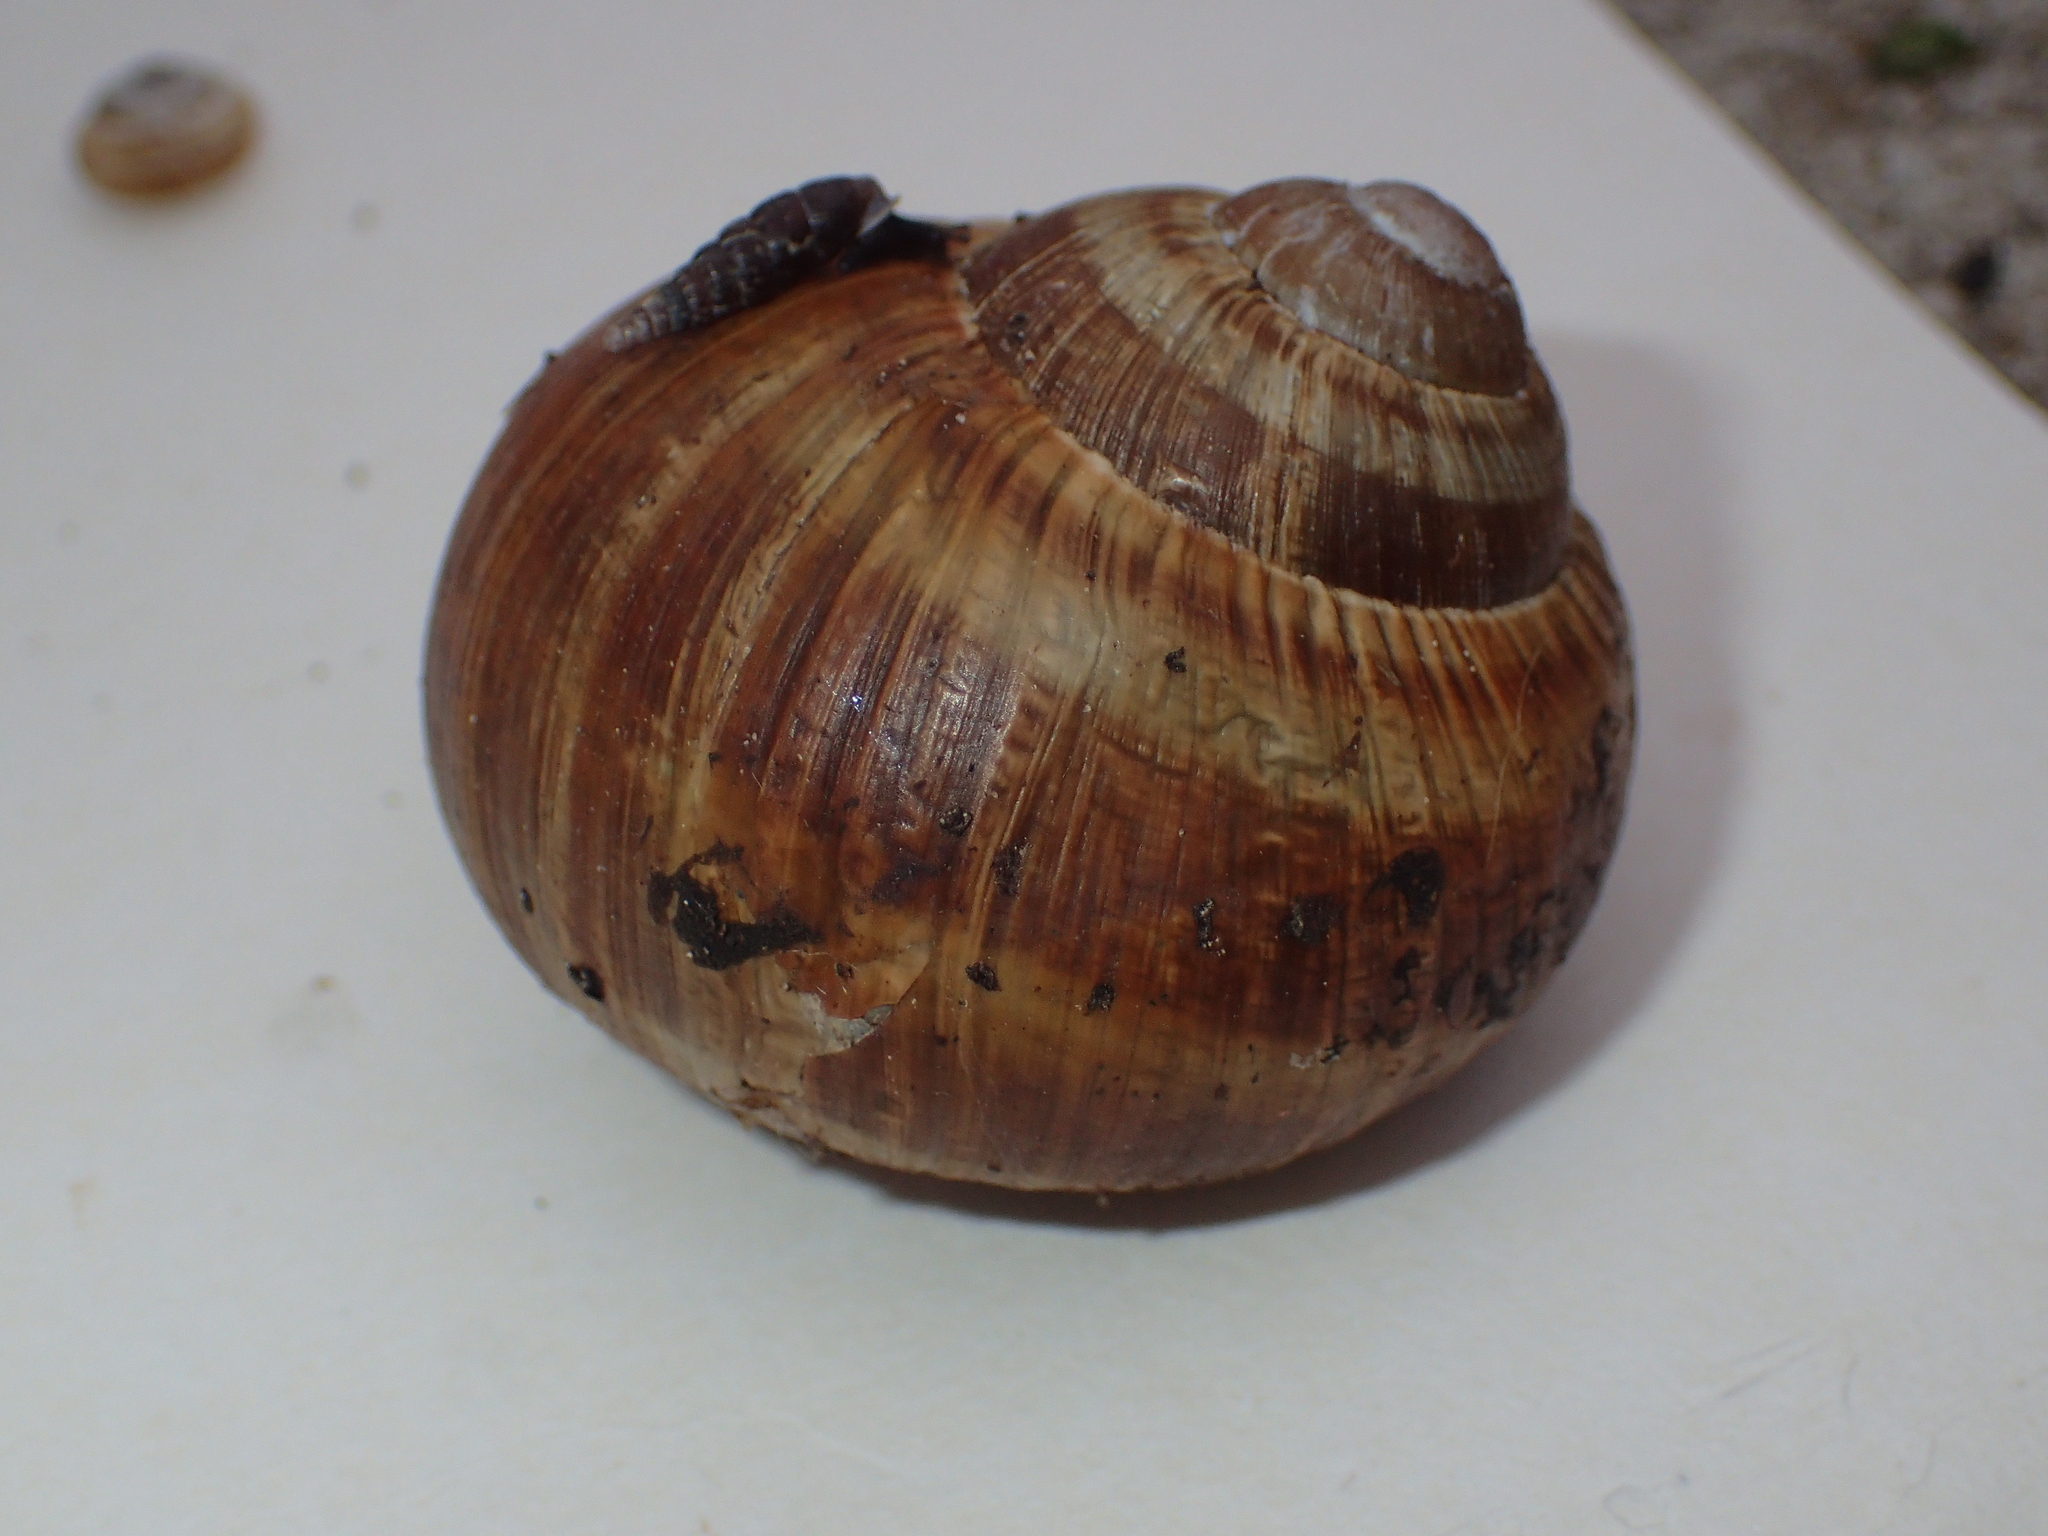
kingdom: Animalia
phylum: Mollusca
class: Gastropoda
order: Stylommatophora
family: Helicidae
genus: Helix
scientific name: Helix pomatia
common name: Roman snail
